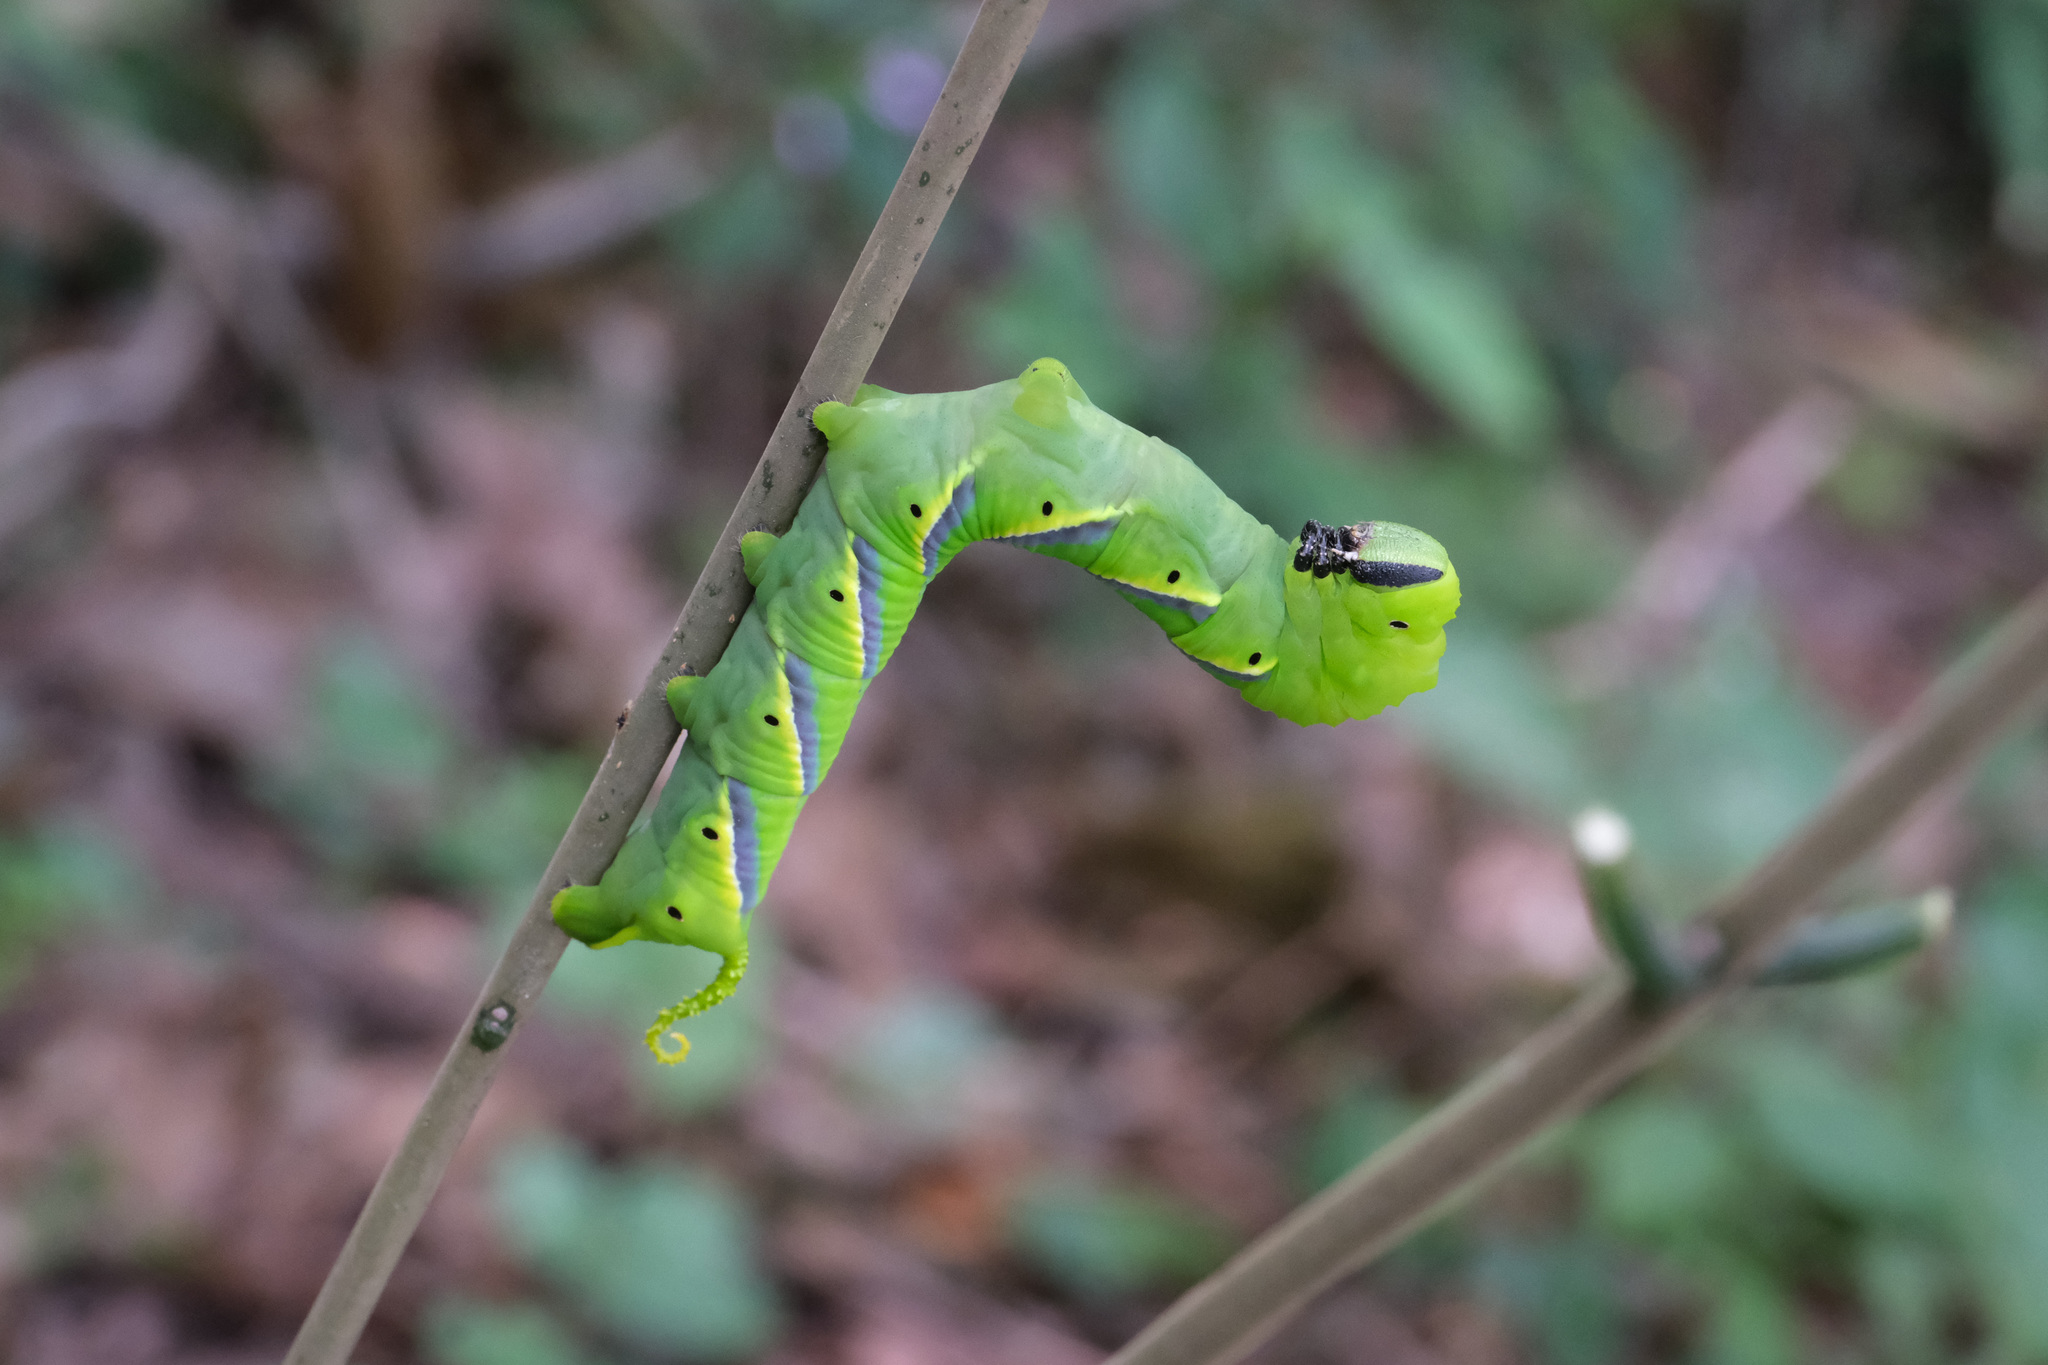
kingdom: Animalia
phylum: Arthropoda
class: Insecta
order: Lepidoptera
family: Sphingidae
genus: Acherontia
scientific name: Acherontia lachesis
